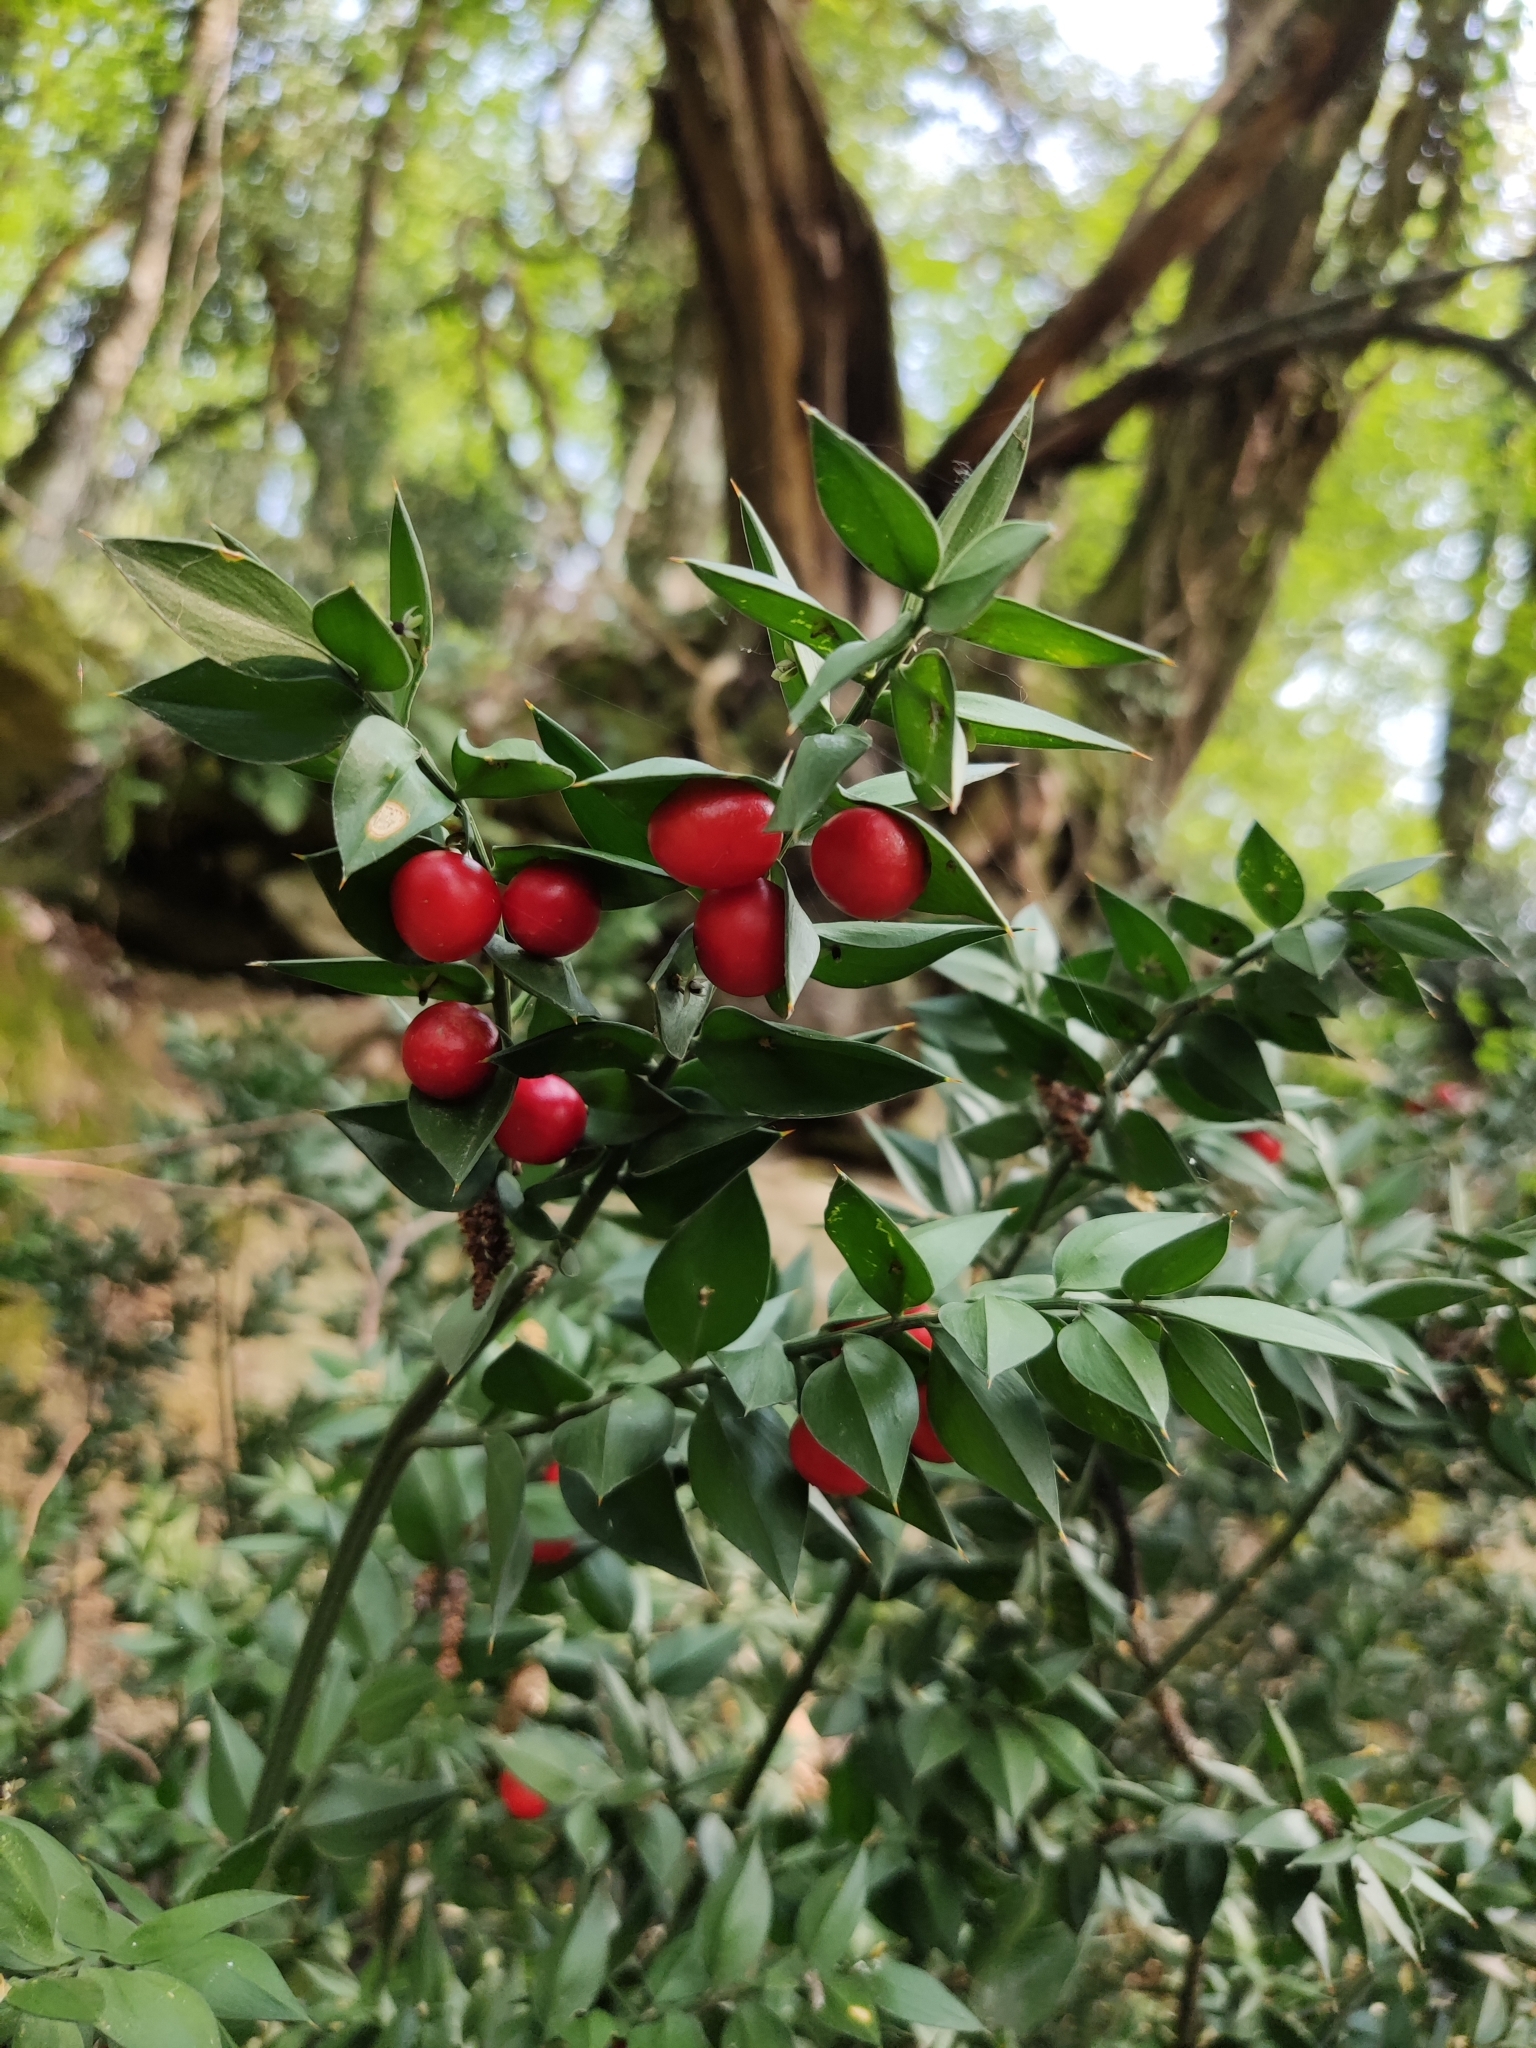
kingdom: Plantae
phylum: Tracheophyta
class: Liliopsida
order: Asparagales
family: Asparagaceae
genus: Ruscus
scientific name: Ruscus aculeatus
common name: Butcher's-broom
